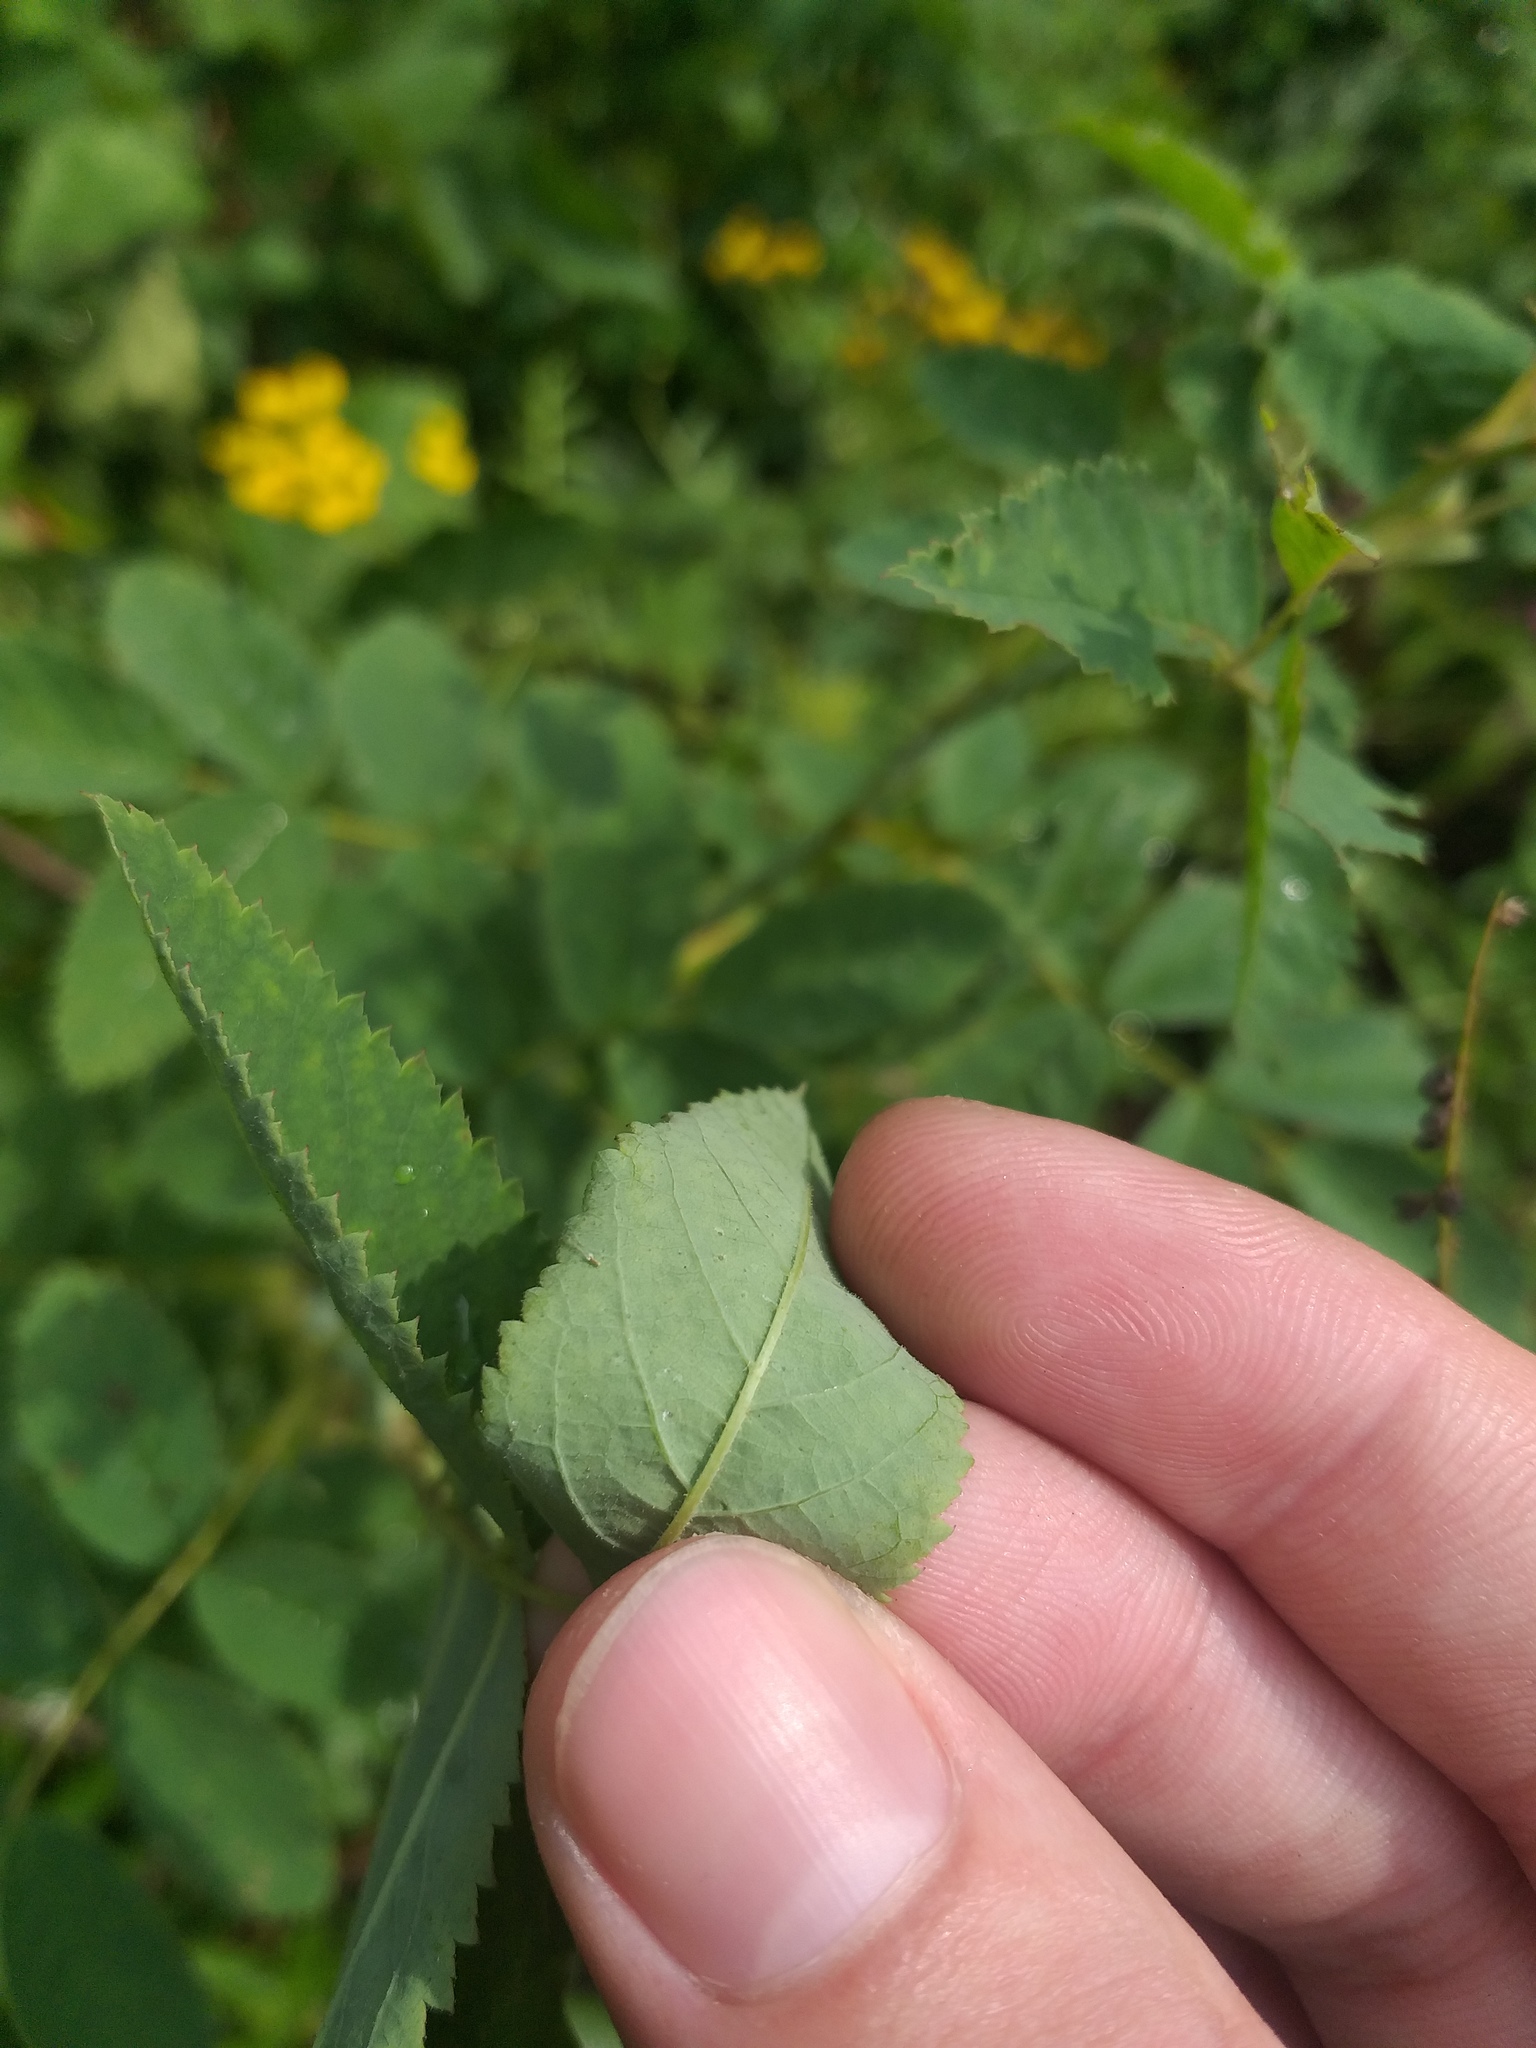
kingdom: Plantae
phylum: Tracheophyta
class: Magnoliopsida
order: Rosales
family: Rosaceae
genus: Rosa
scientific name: Rosa viarum
